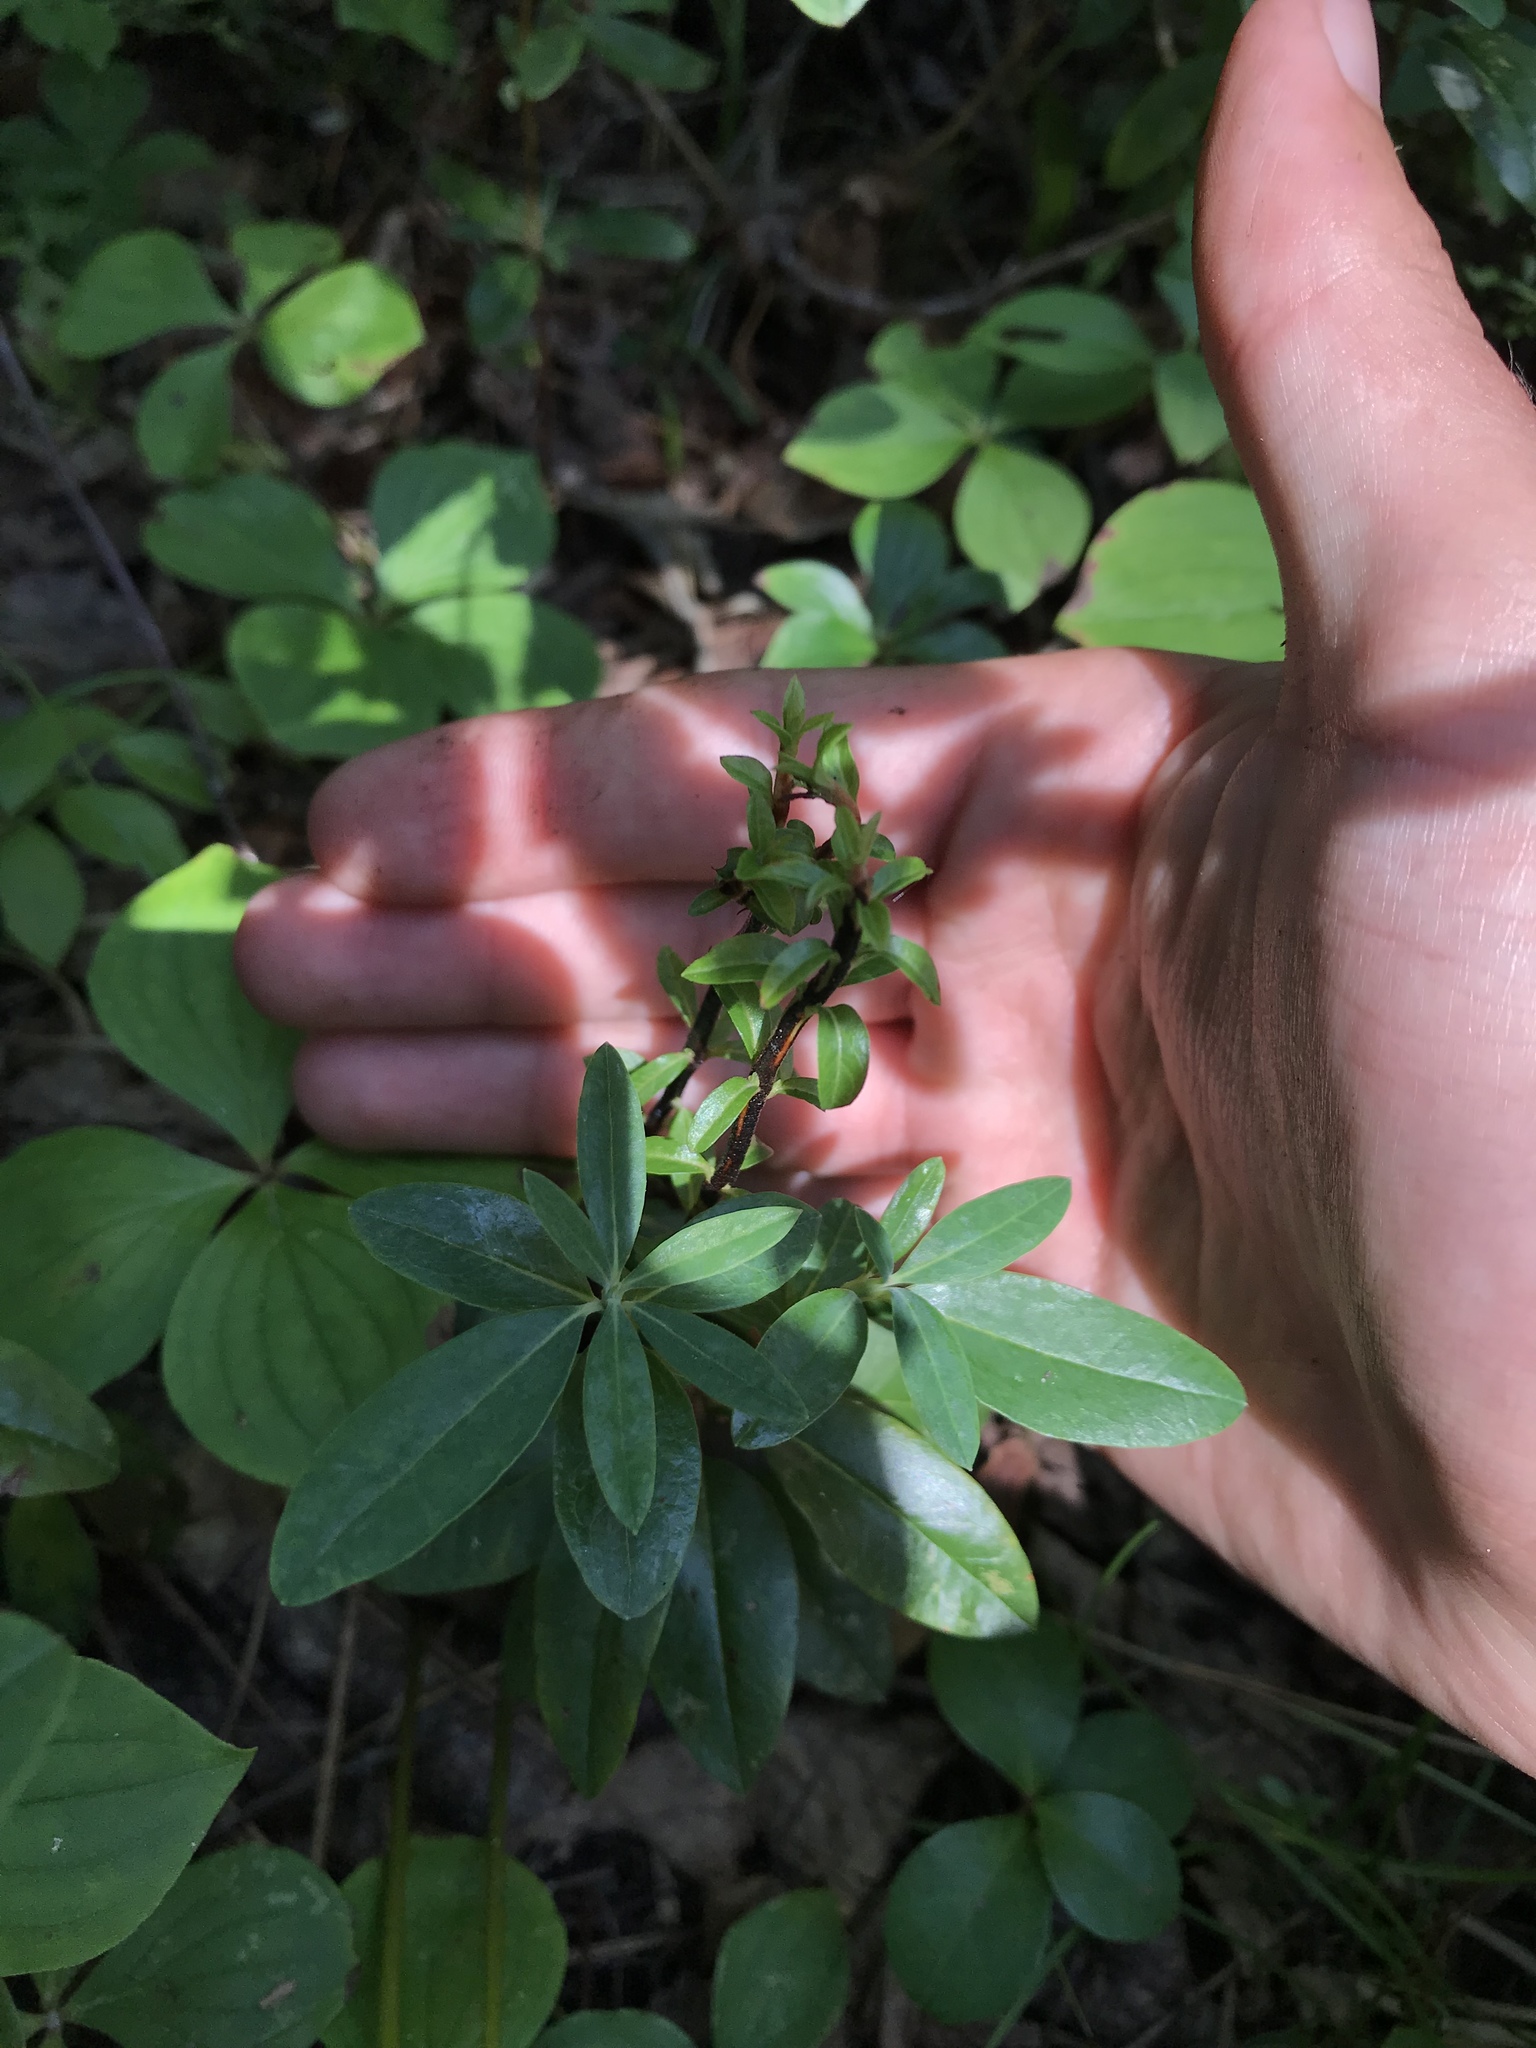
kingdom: Plantae
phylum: Tracheophyta
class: Magnoliopsida
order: Ericales
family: Ericaceae
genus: Kalmia
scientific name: Kalmia angustifolia
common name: Sheep-laurel
